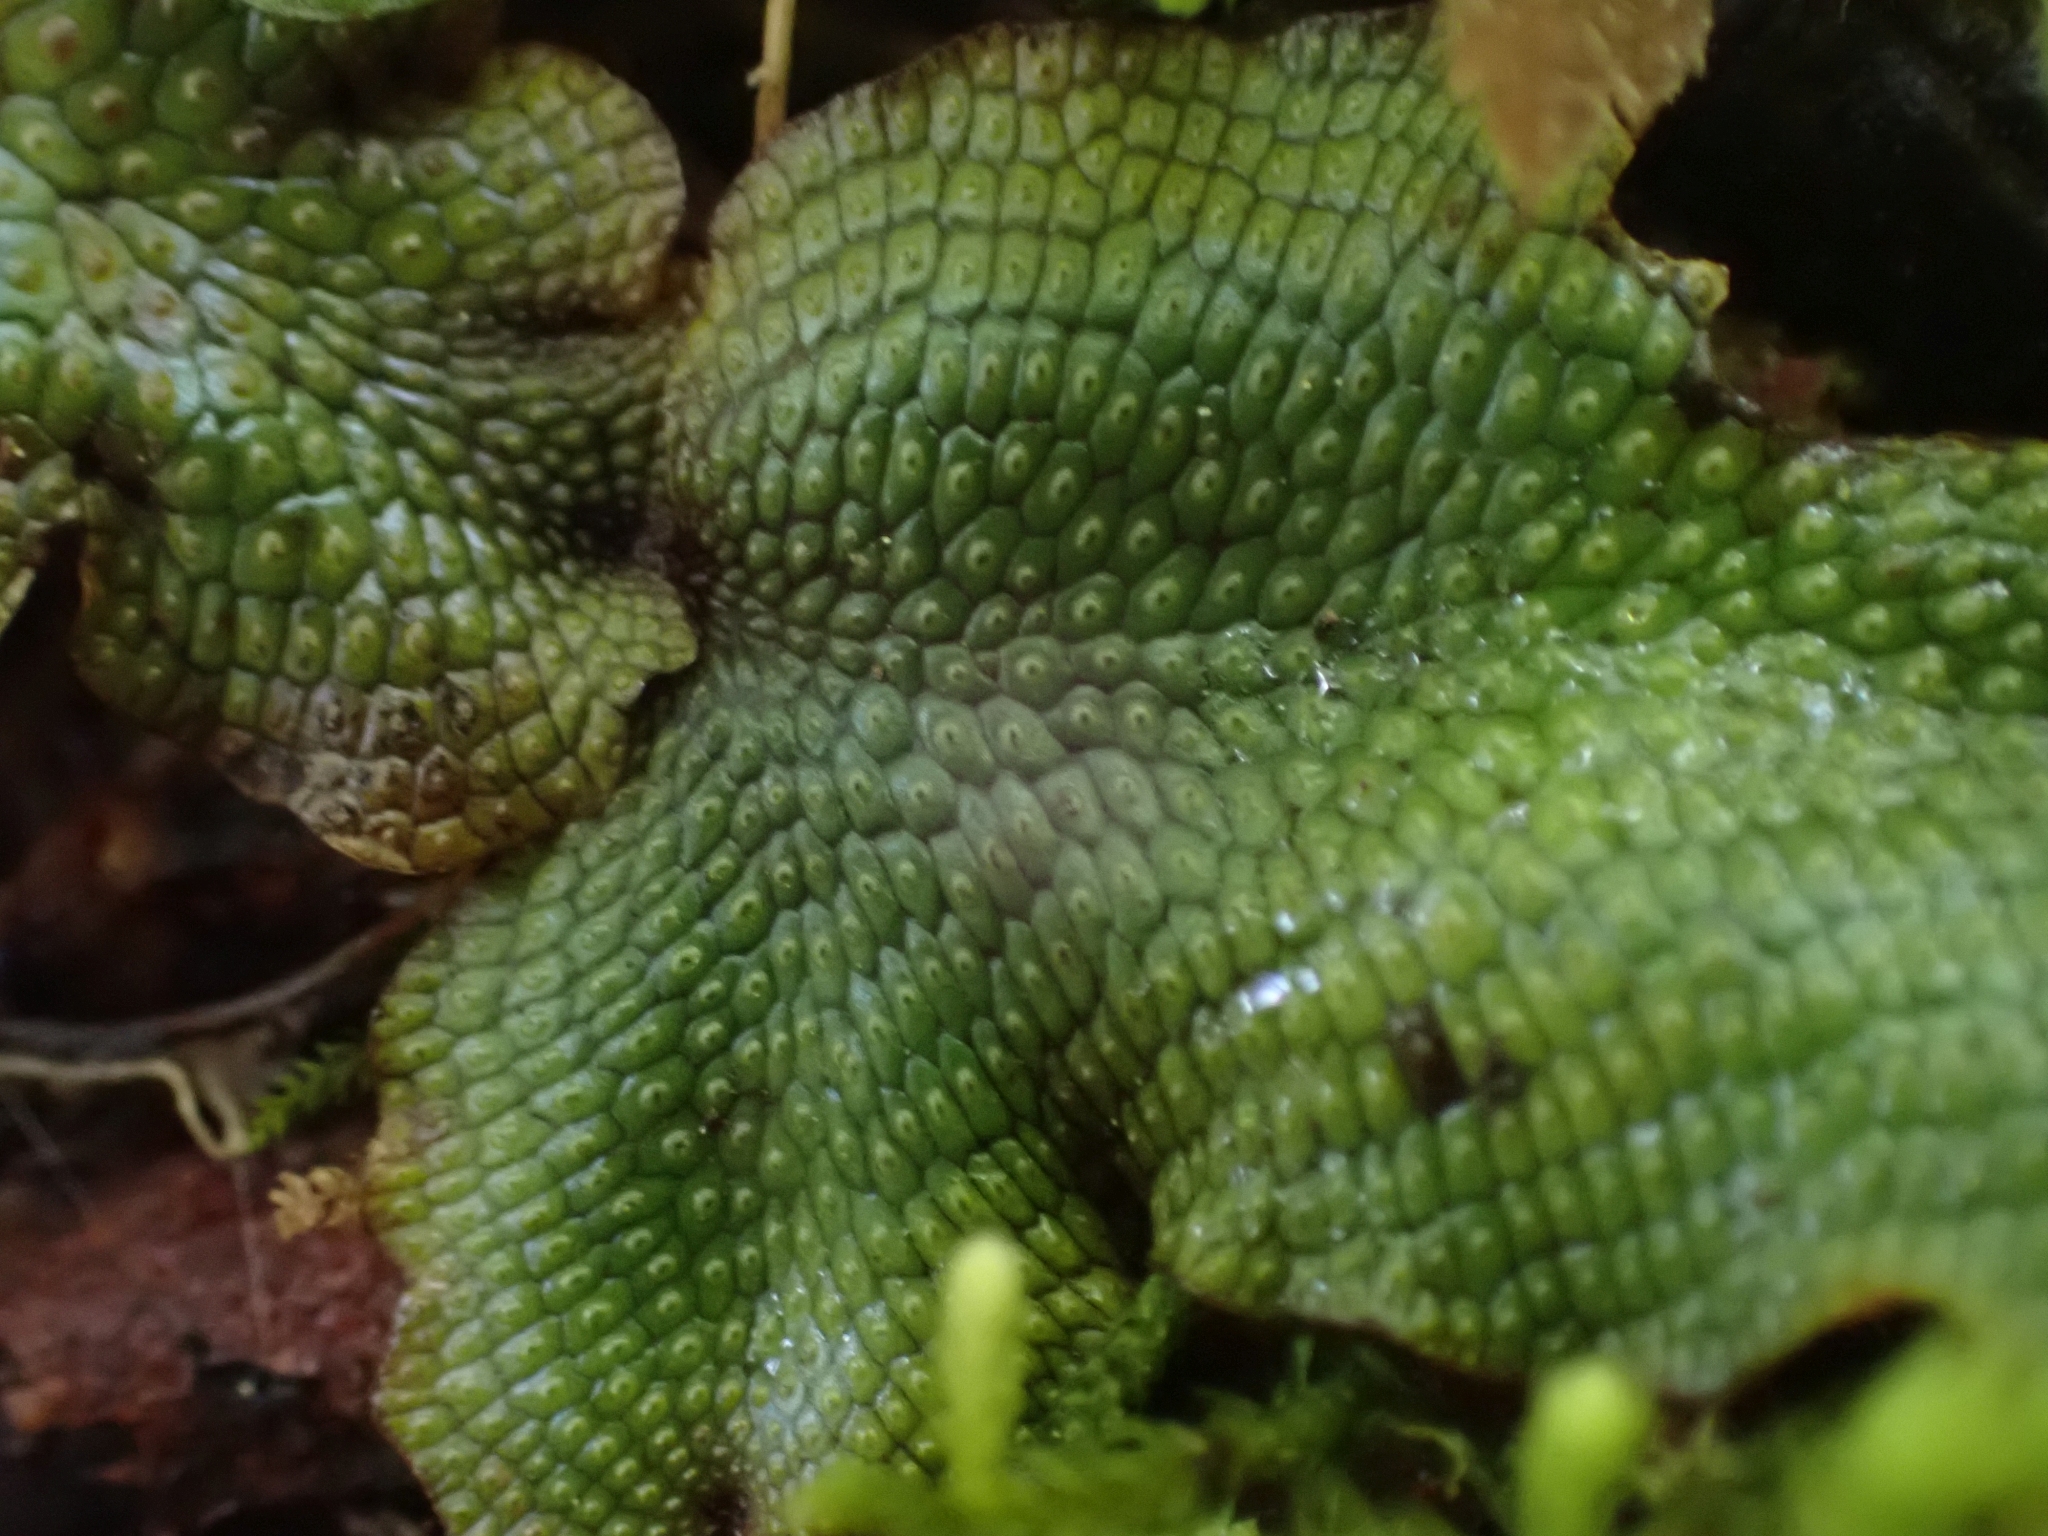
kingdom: Plantae
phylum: Marchantiophyta
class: Marchantiopsida
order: Marchantiales
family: Conocephalaceae
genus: Conocephalum
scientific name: Conocephalum salebrosum
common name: Cat-tongue liverwort
